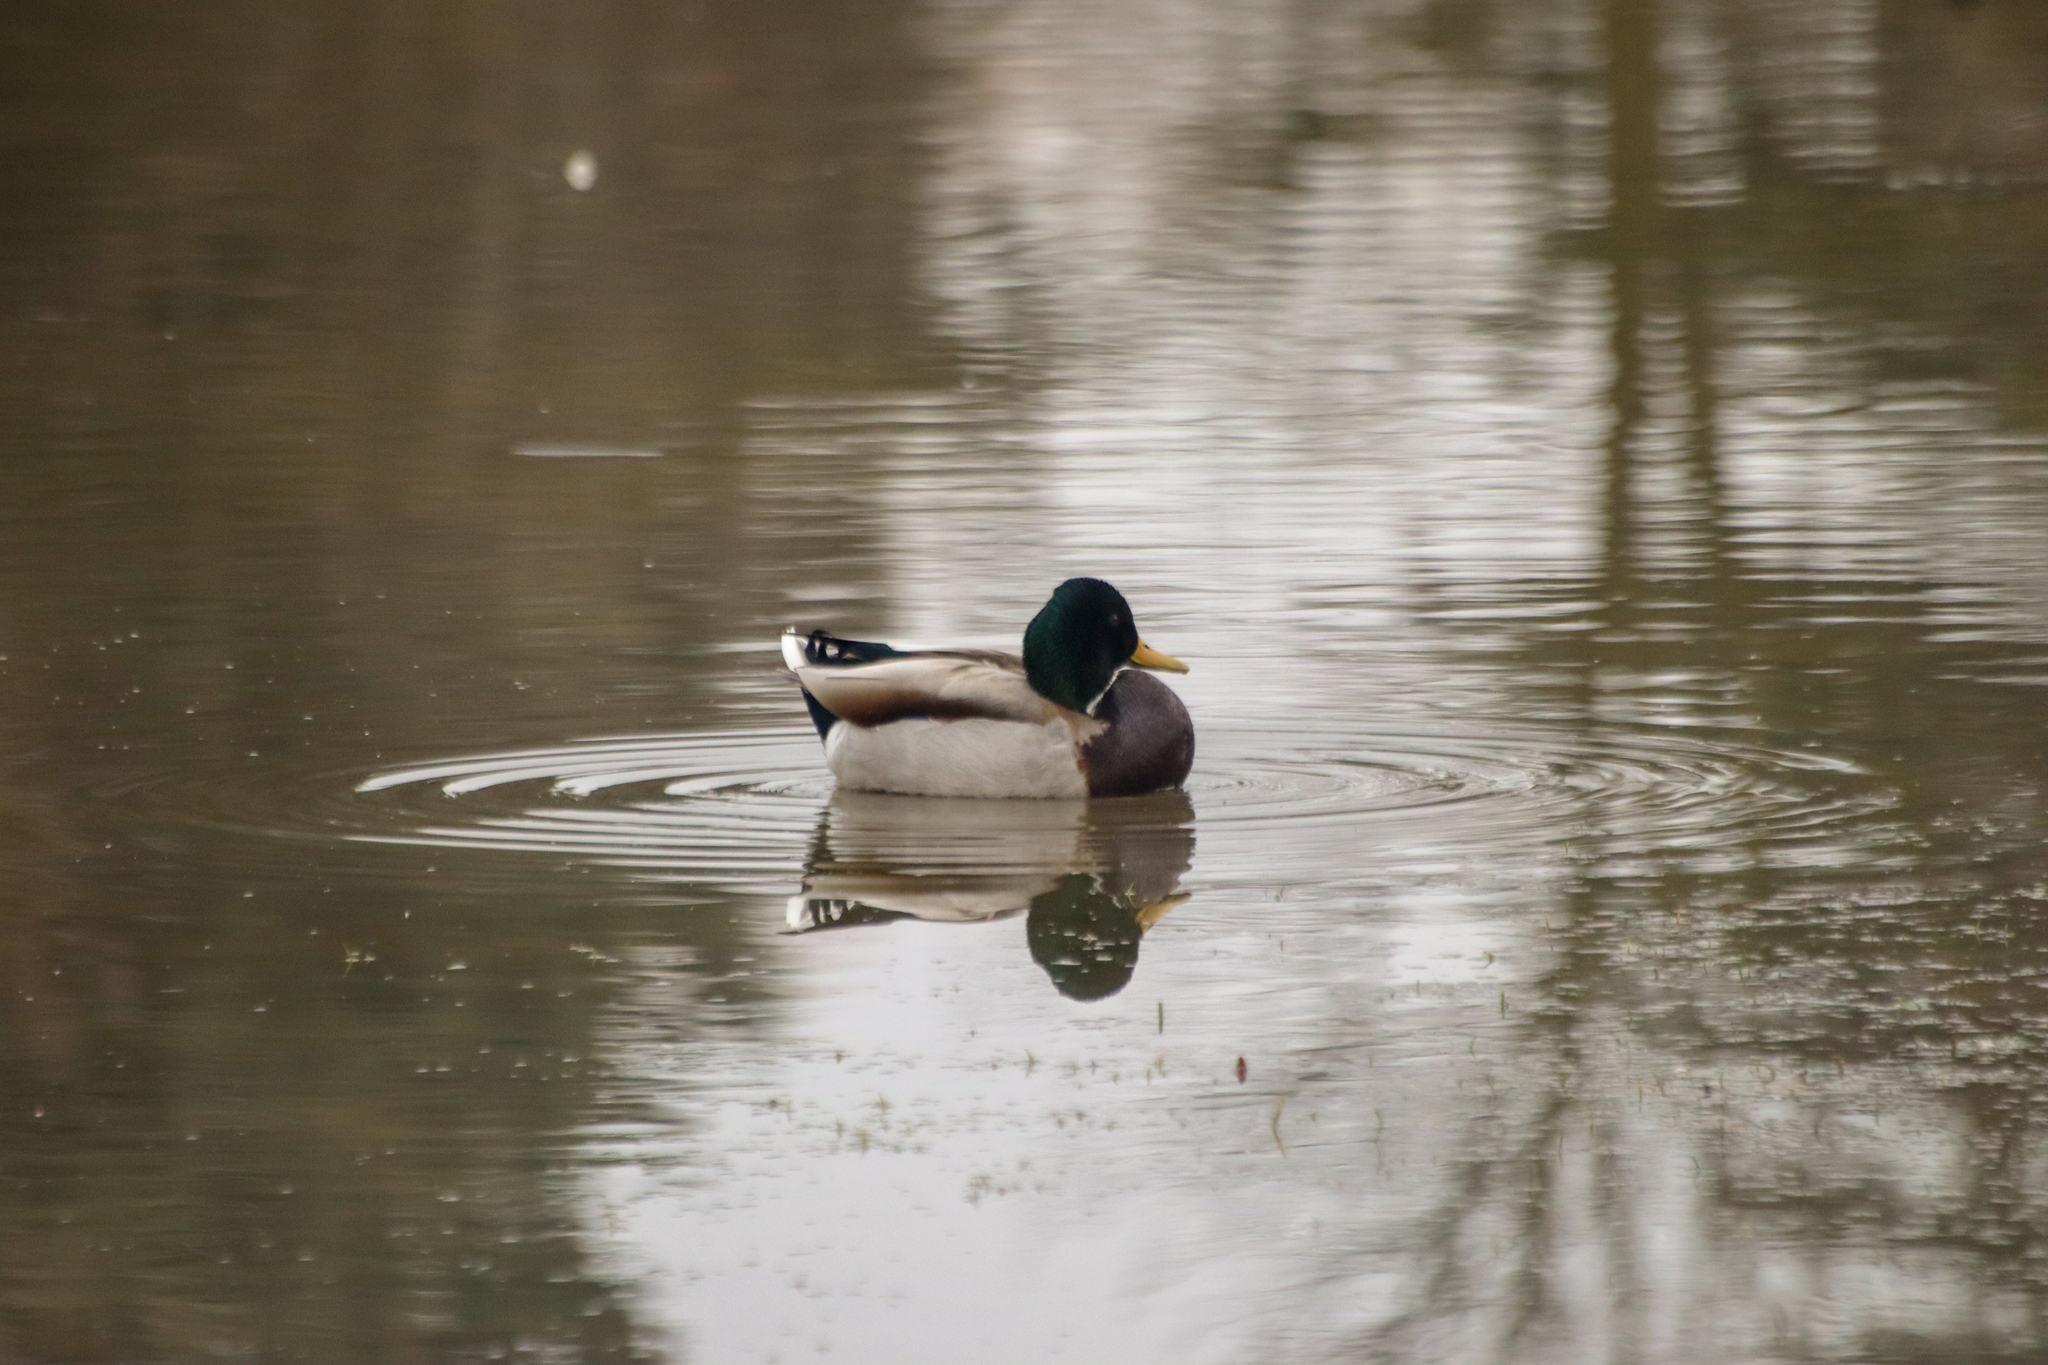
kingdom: Animalia
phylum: Chordata
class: Aves
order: Anseriformes
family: Anatidae
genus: Anas
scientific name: Anas platyrhynchos
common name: Mallard
